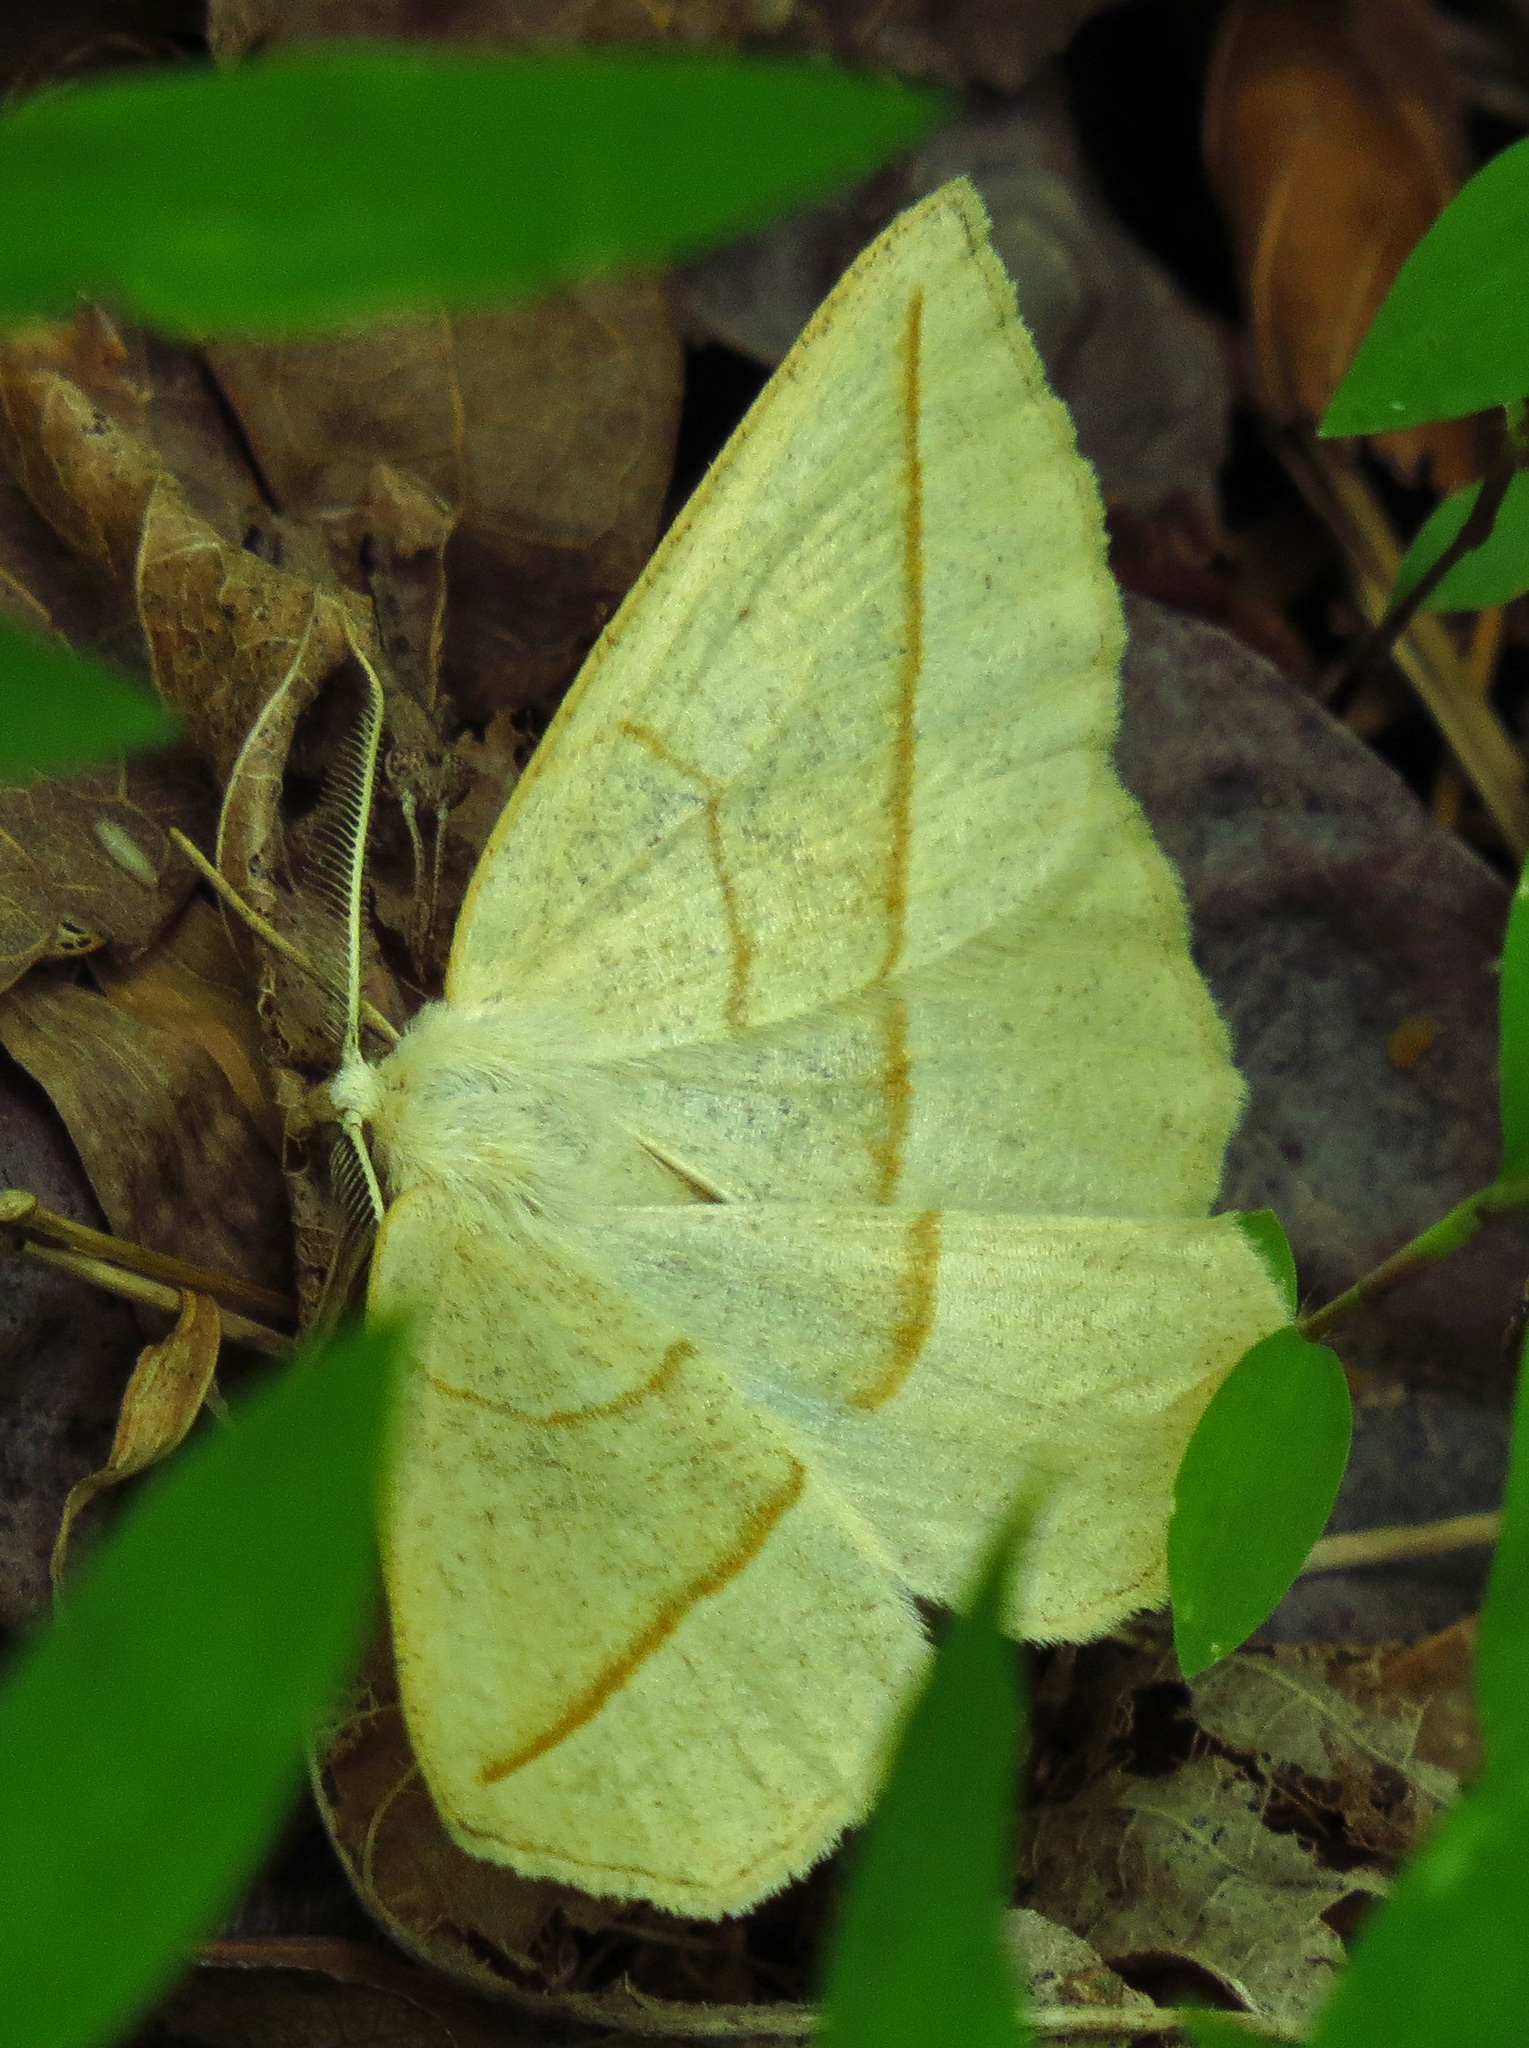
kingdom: Animalia
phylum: Arthropoda
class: Insecta
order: Lepidoptera
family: Geometridae
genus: Eusarca
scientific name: Eusarca confusaria
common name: Confused eusarca
